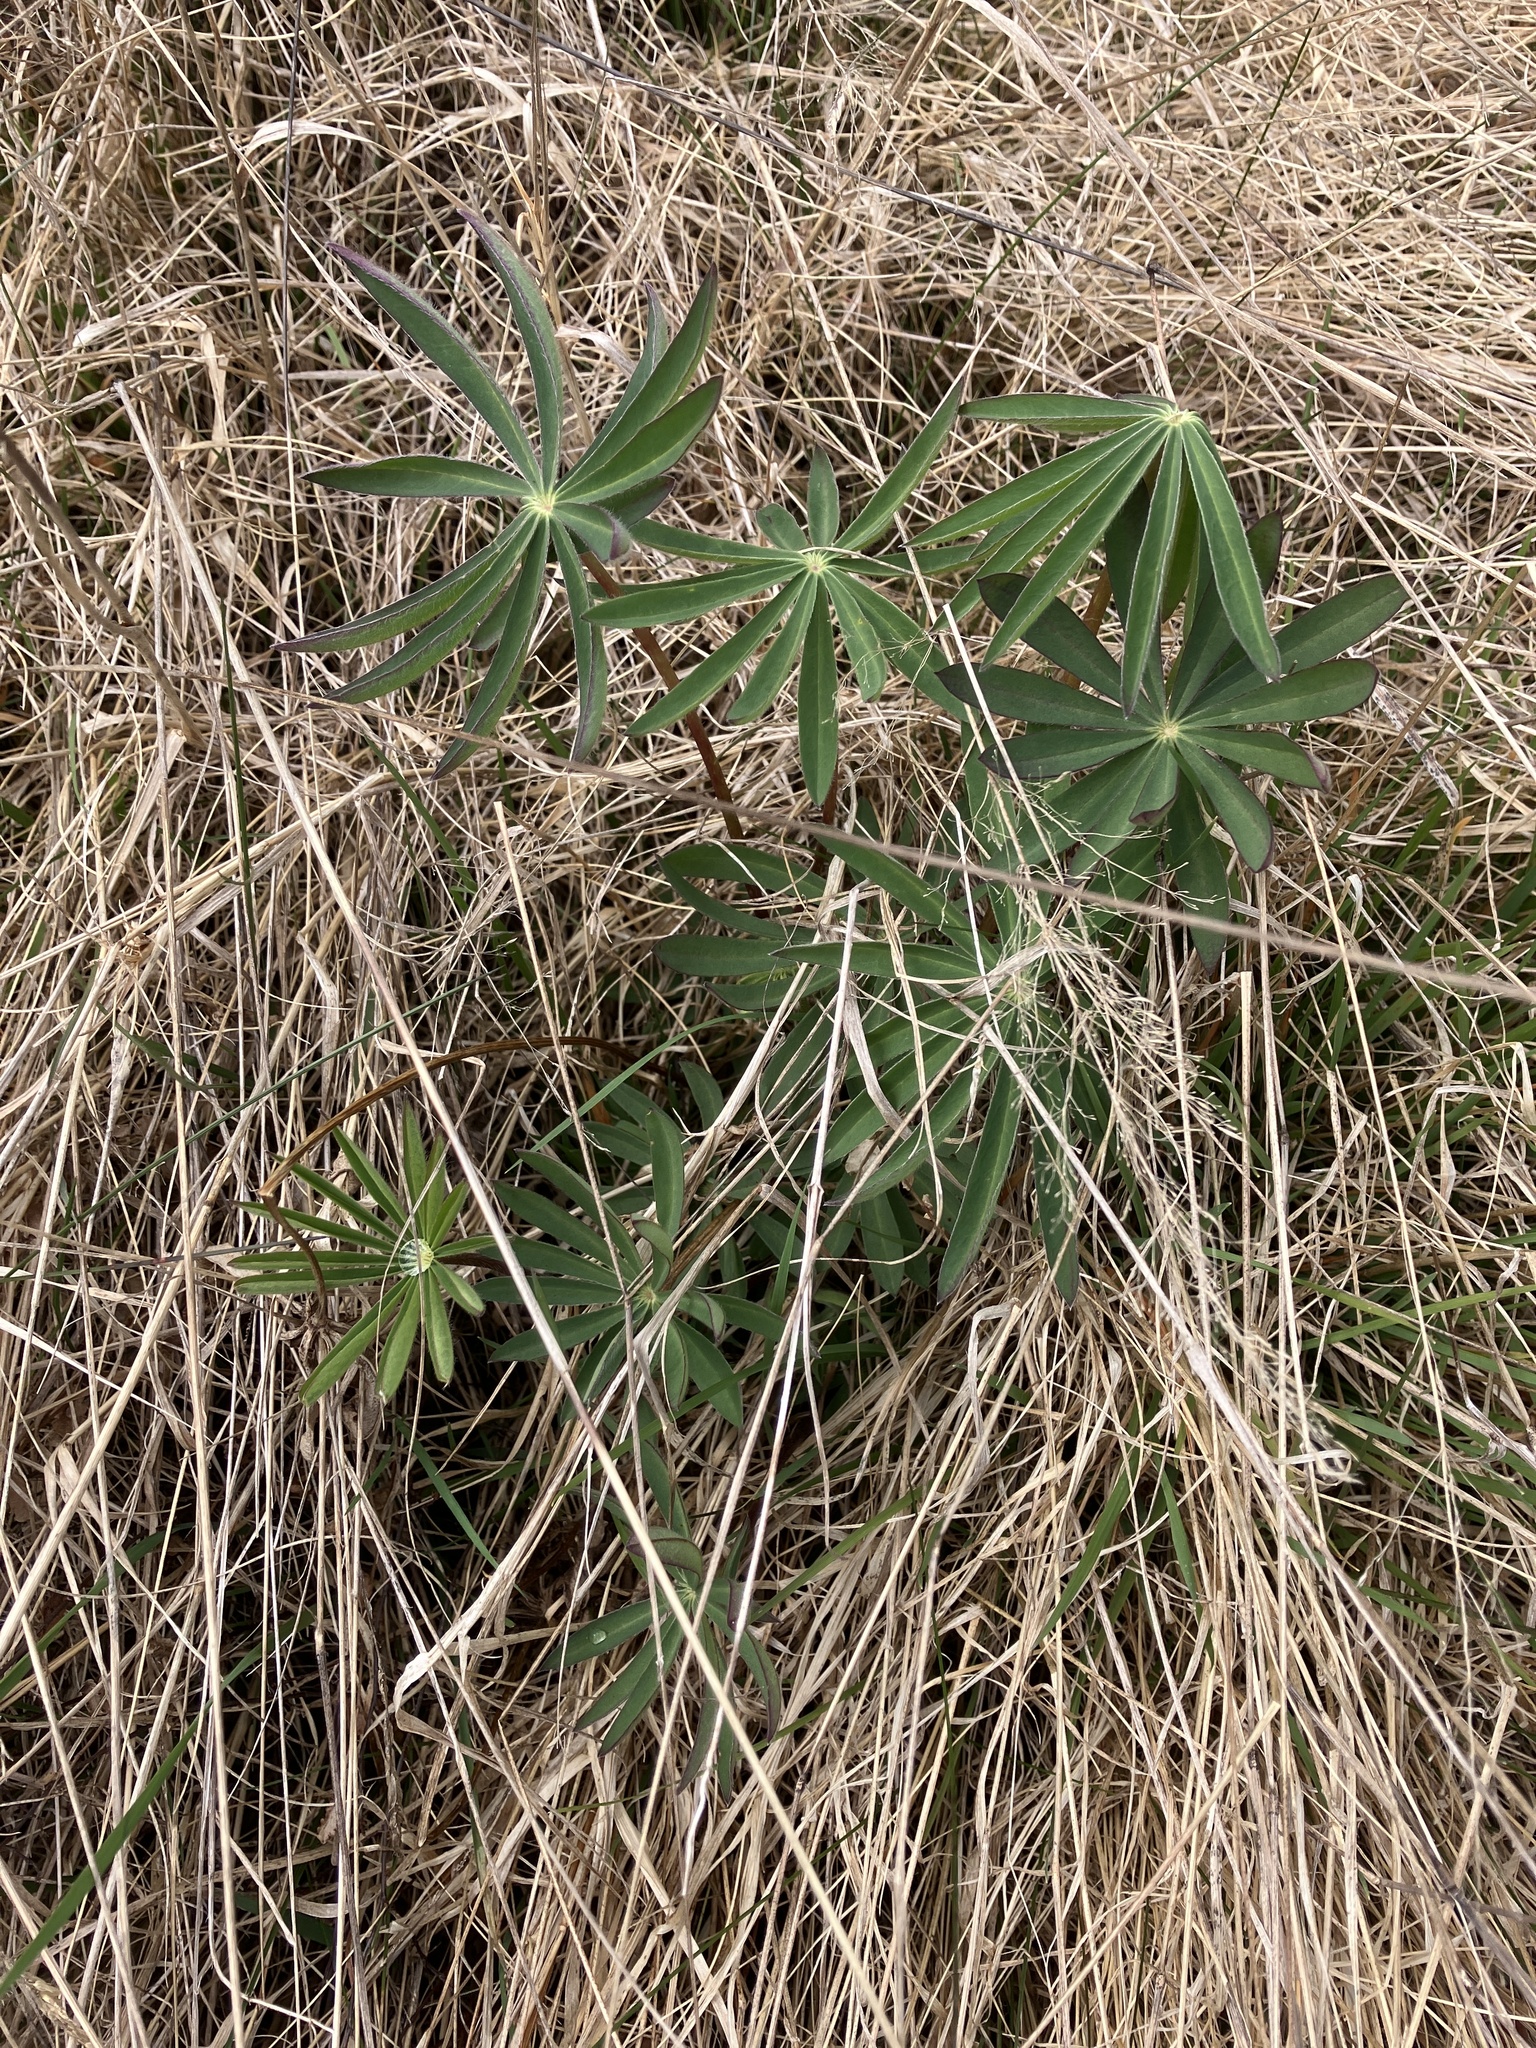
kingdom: Plantae
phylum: Tracheophyta
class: Magnoliopsida
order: Fabales
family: Fabaceae
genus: Lupinus
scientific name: Lupinus polyphyllus
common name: Garden lupin
